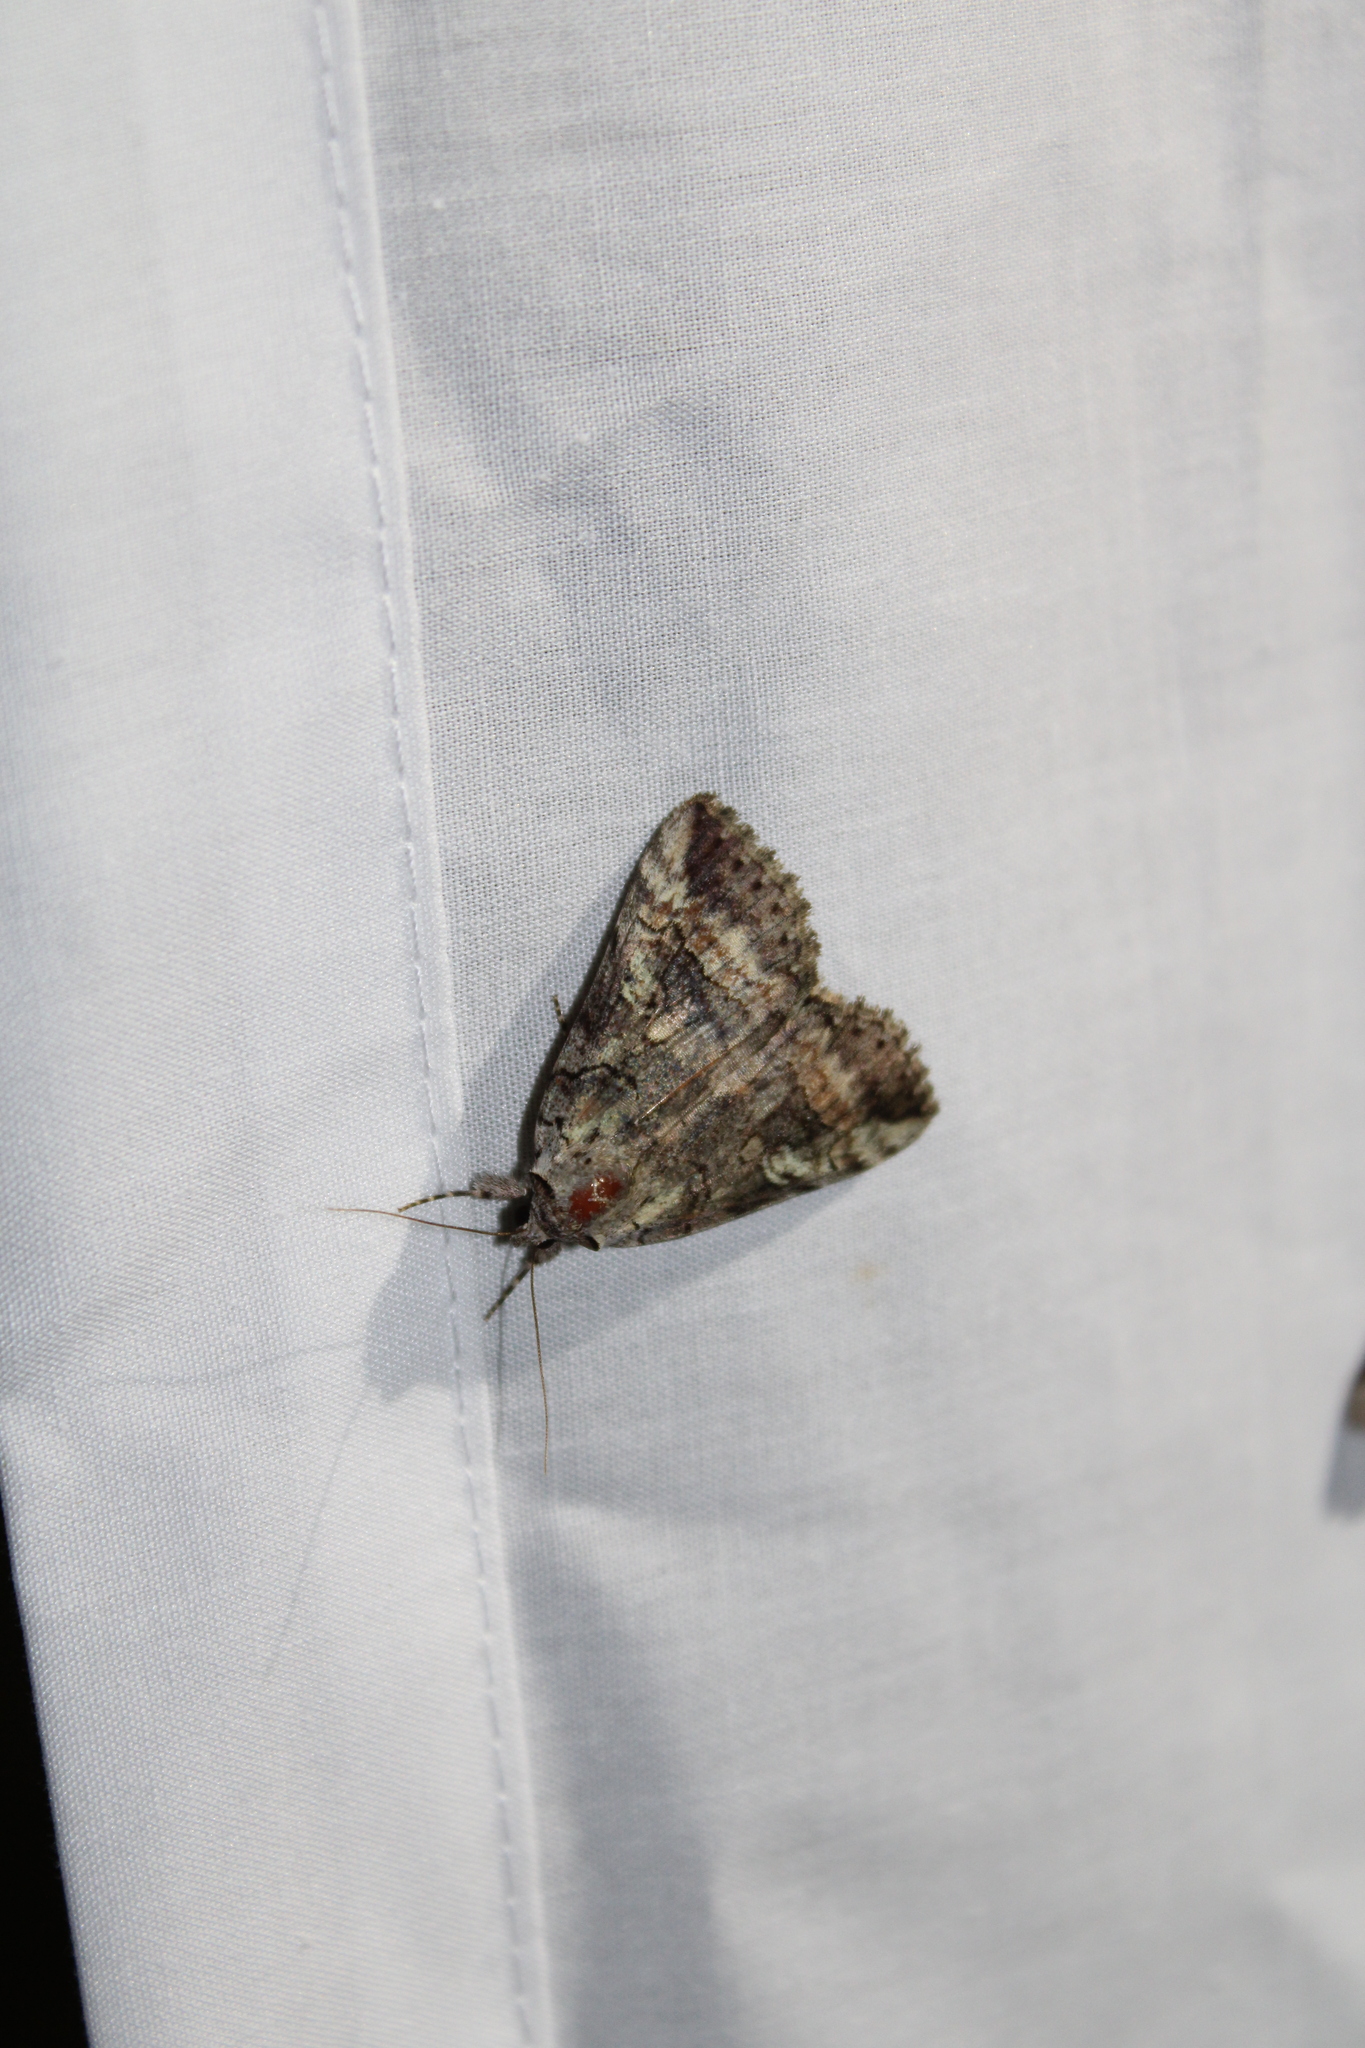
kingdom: Animalia
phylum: Arthropoda
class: Insecta
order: Lepidoptera
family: Erebidae
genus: Catocala
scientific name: Catocala similis
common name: Similar underwing
